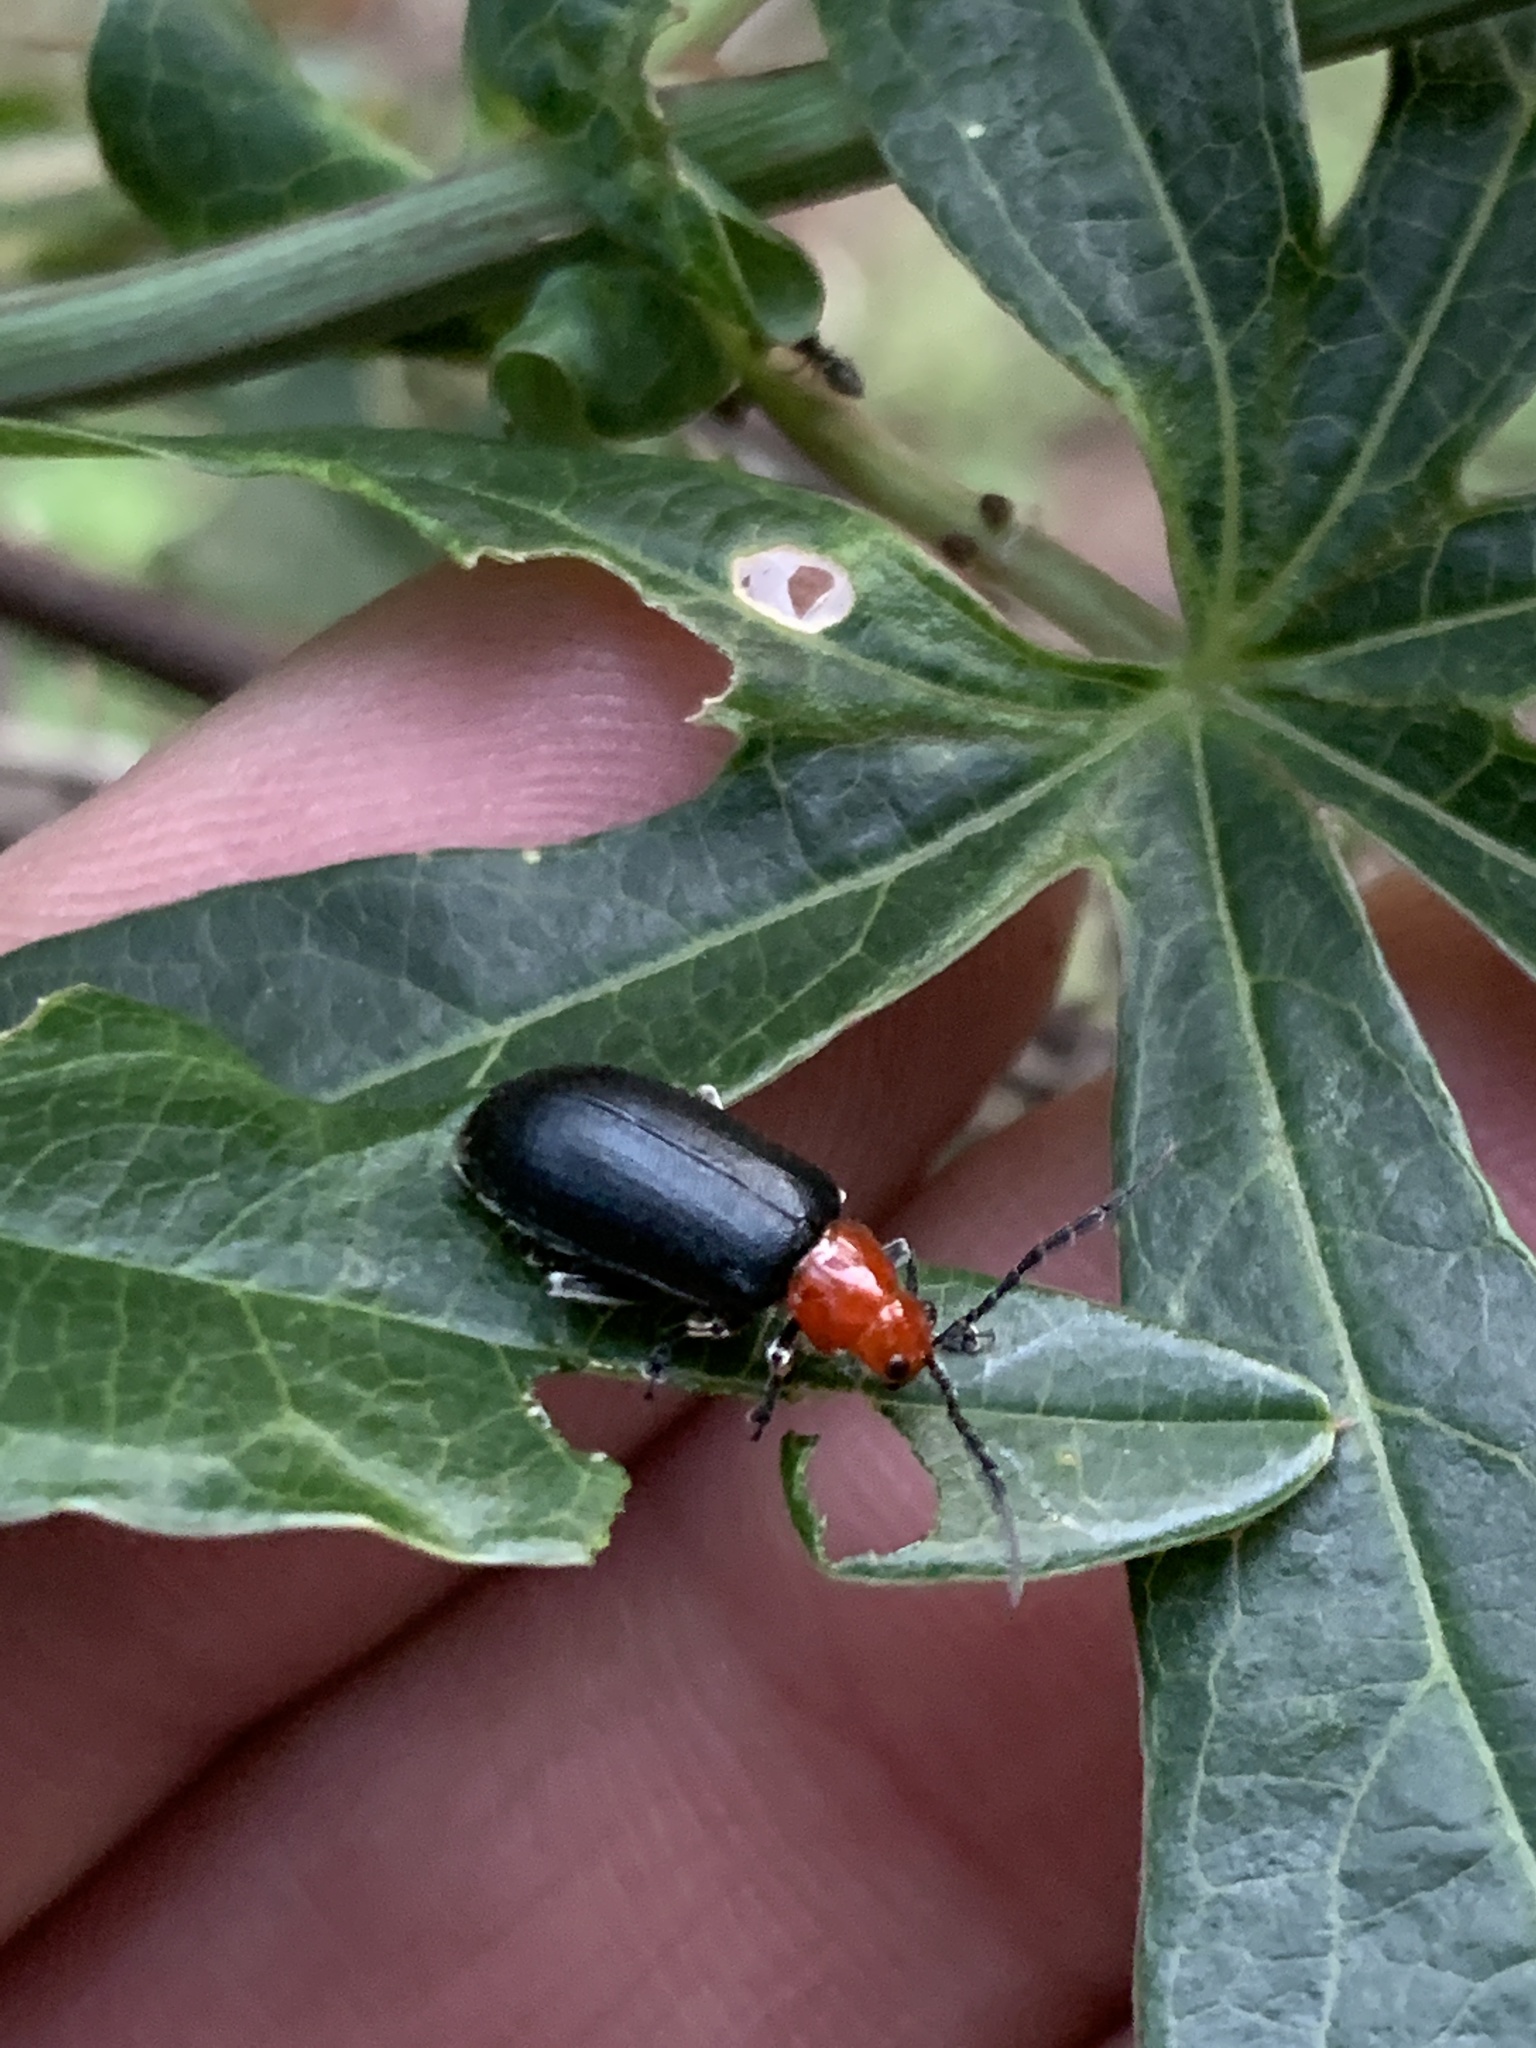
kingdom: Animalia
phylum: Arthropoda
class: Insecta
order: Coleoptera
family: Chrysomelidae
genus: Cacoscelis
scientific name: Cacoscelis
